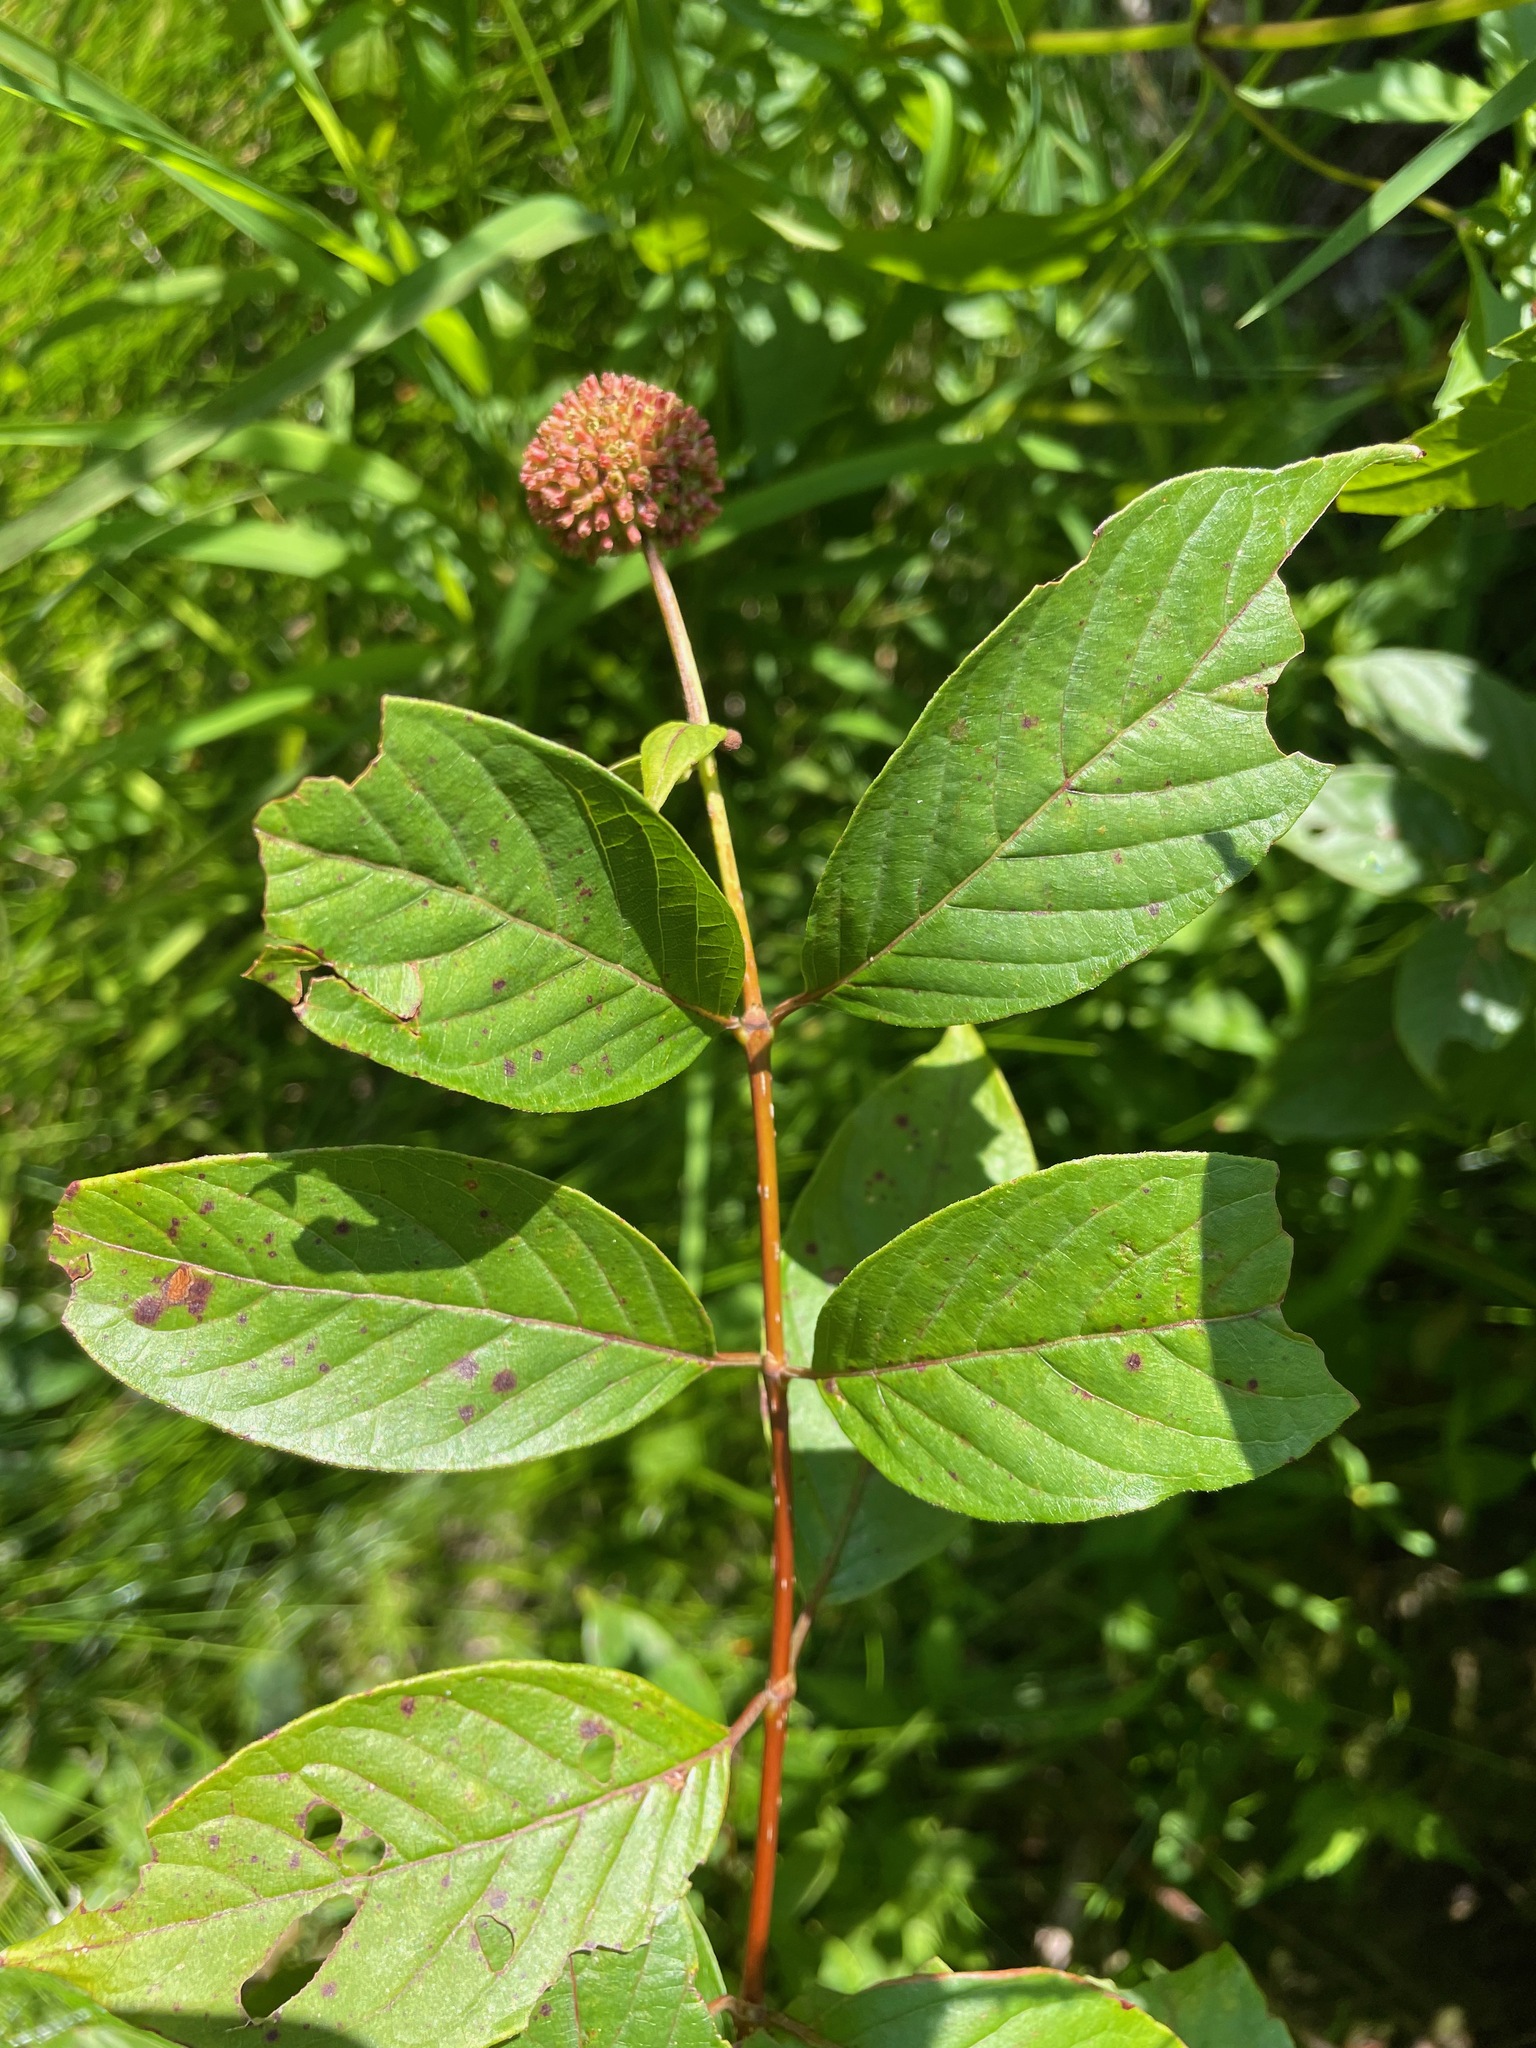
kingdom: Plantae
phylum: Tracheophyta
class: Magnoliopsida
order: Gentianales
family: Rubiaceae
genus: Cephalanthus
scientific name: Cephalanthus occidentalis
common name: Button-willow
